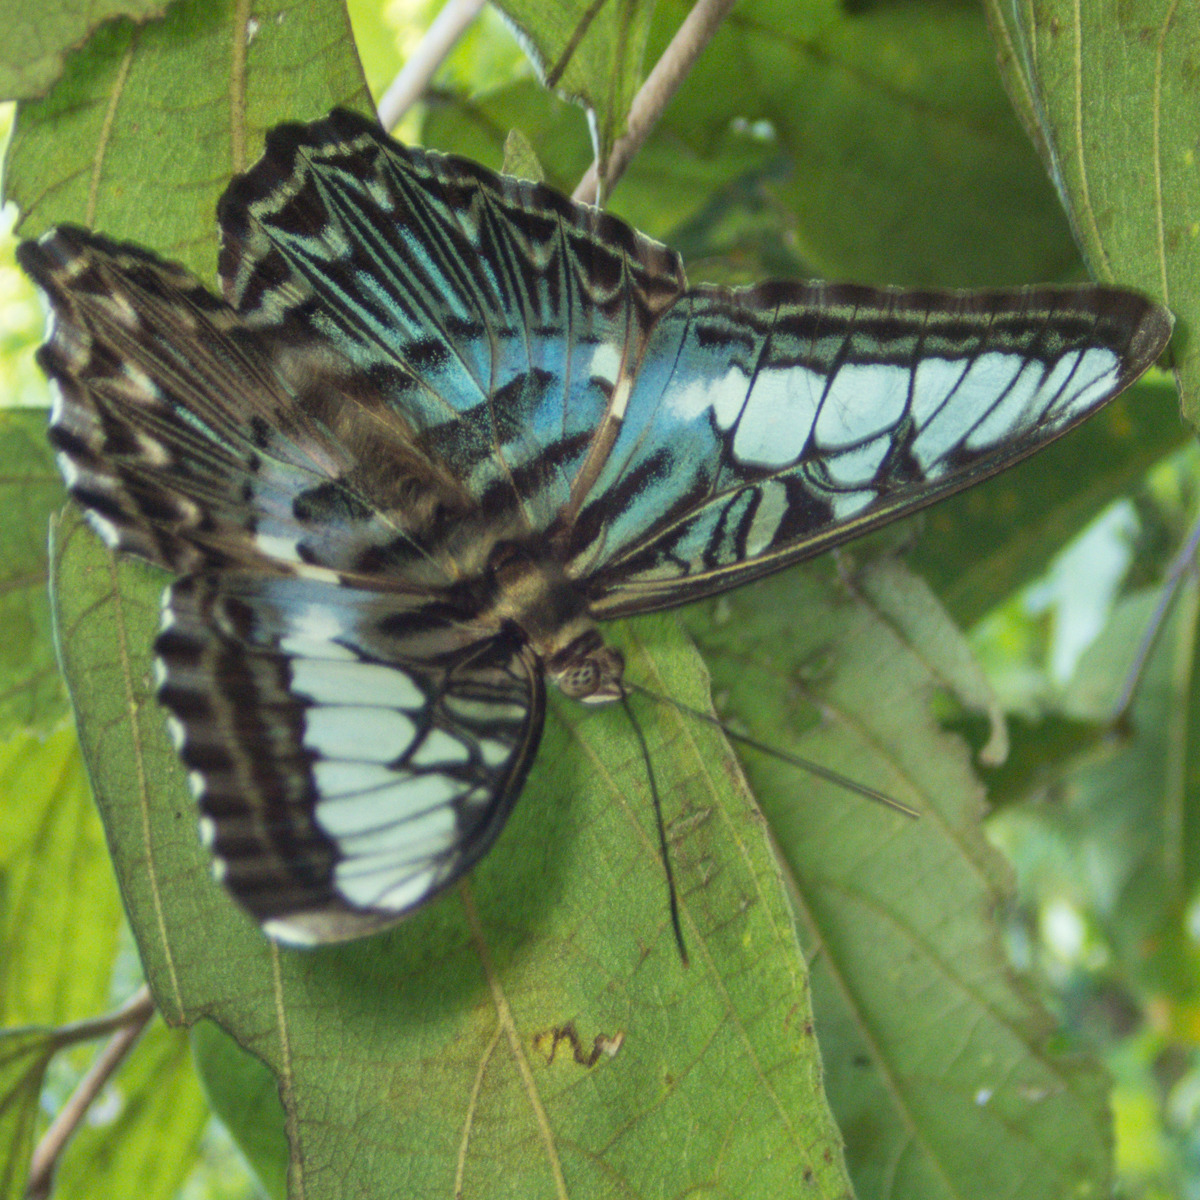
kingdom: Animalia
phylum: Arthropoda
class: Insecta
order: Lepidoptera
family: Nymphalidae
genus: Kallima
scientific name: Kallima sylvia
